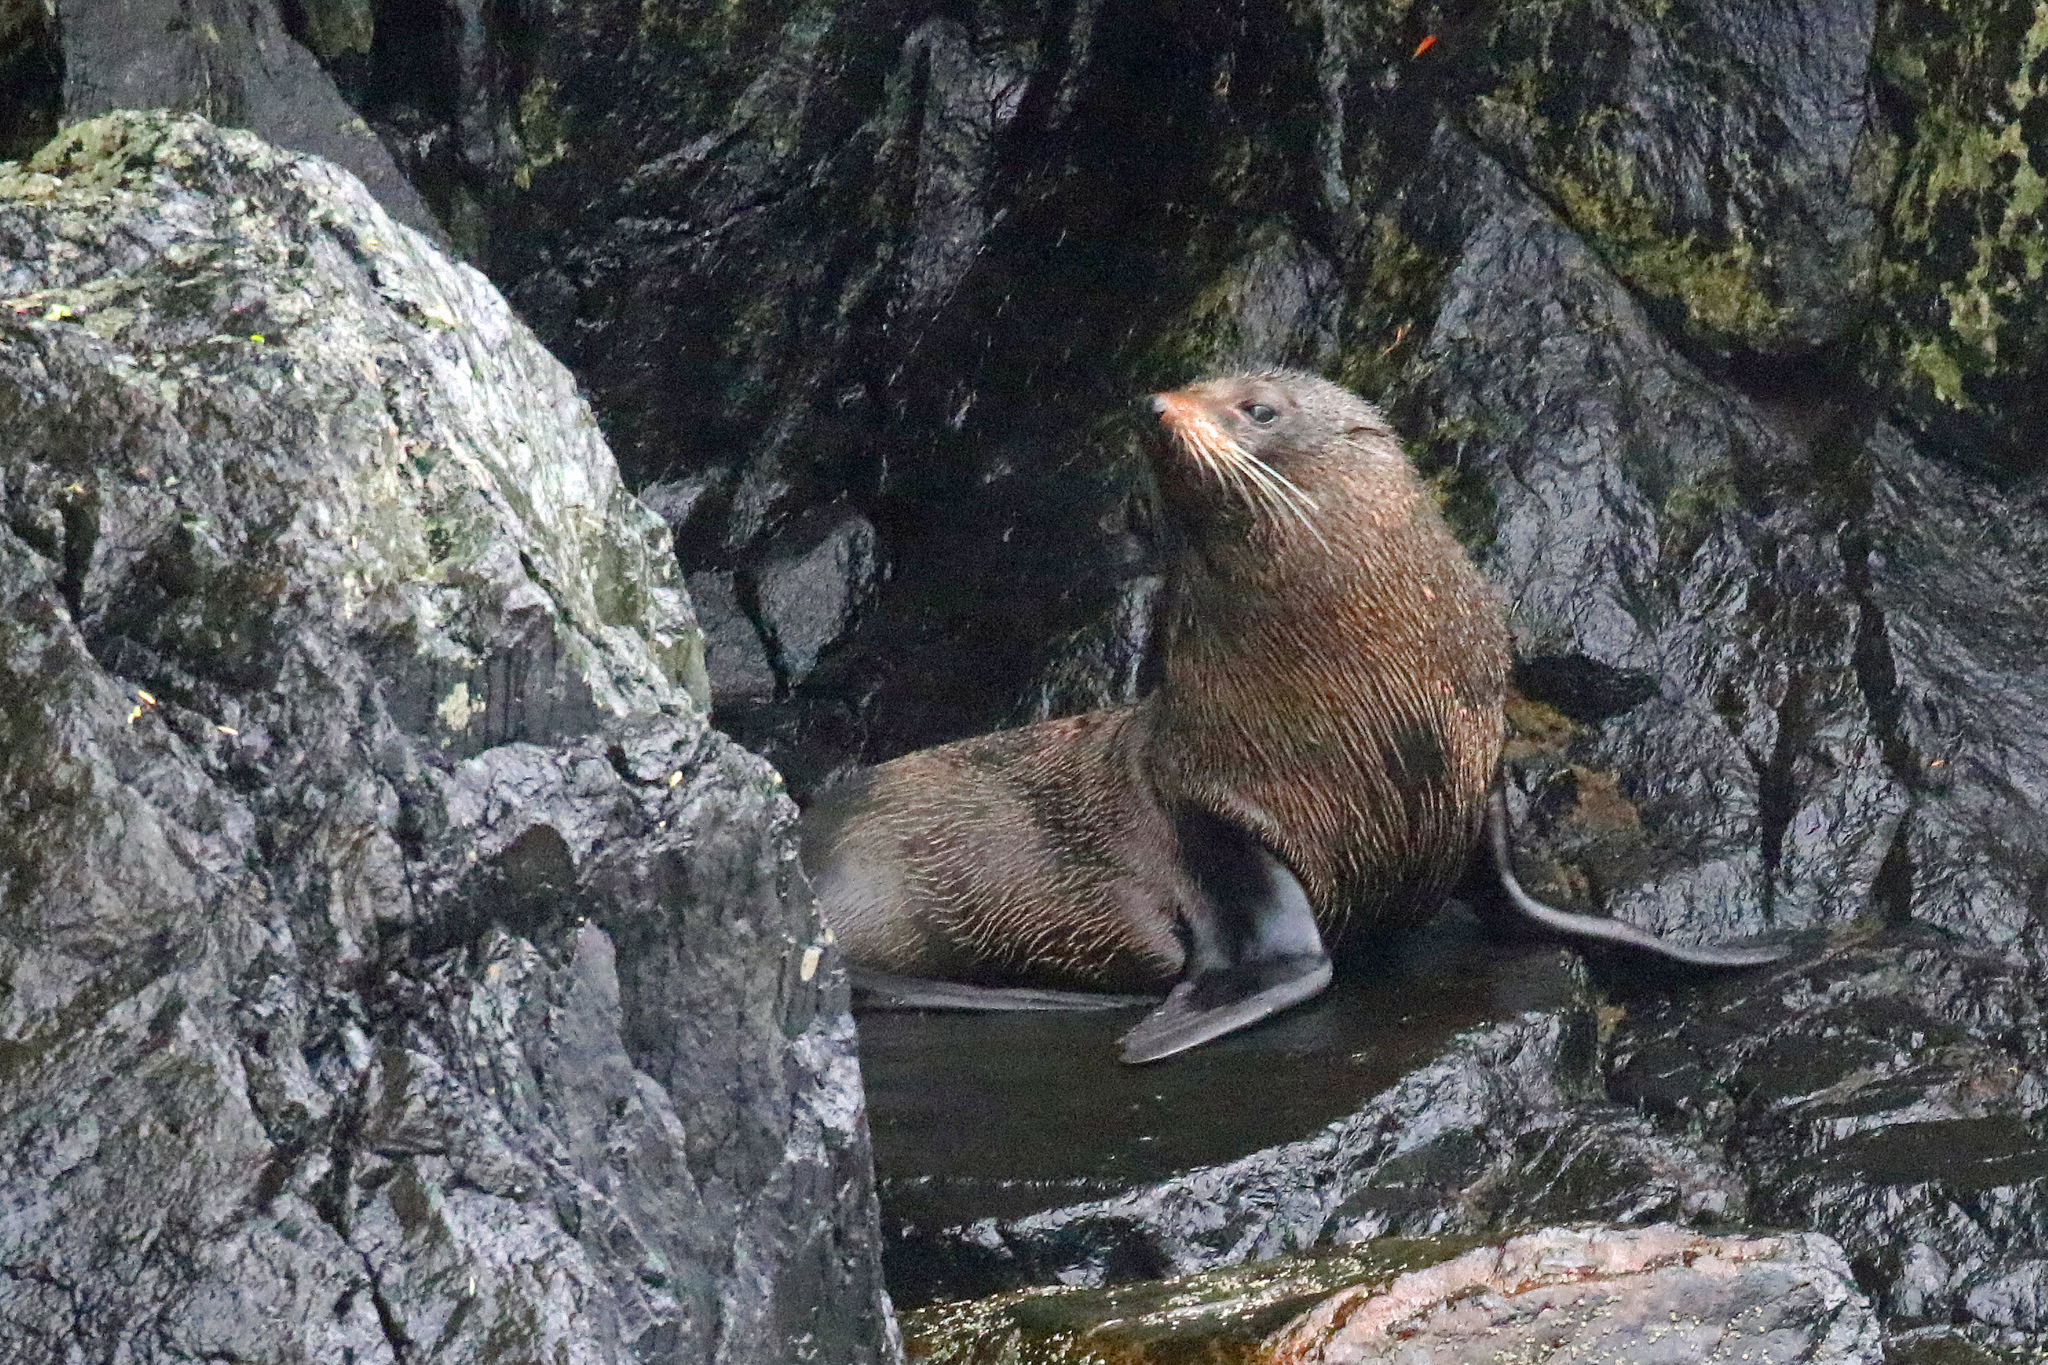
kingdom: Animalia
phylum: Chordata
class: Mammalia
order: Carnivora
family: Otariidae
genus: Arctocephalus
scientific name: Arctocephalus forsteri
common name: New zealand fur seal
